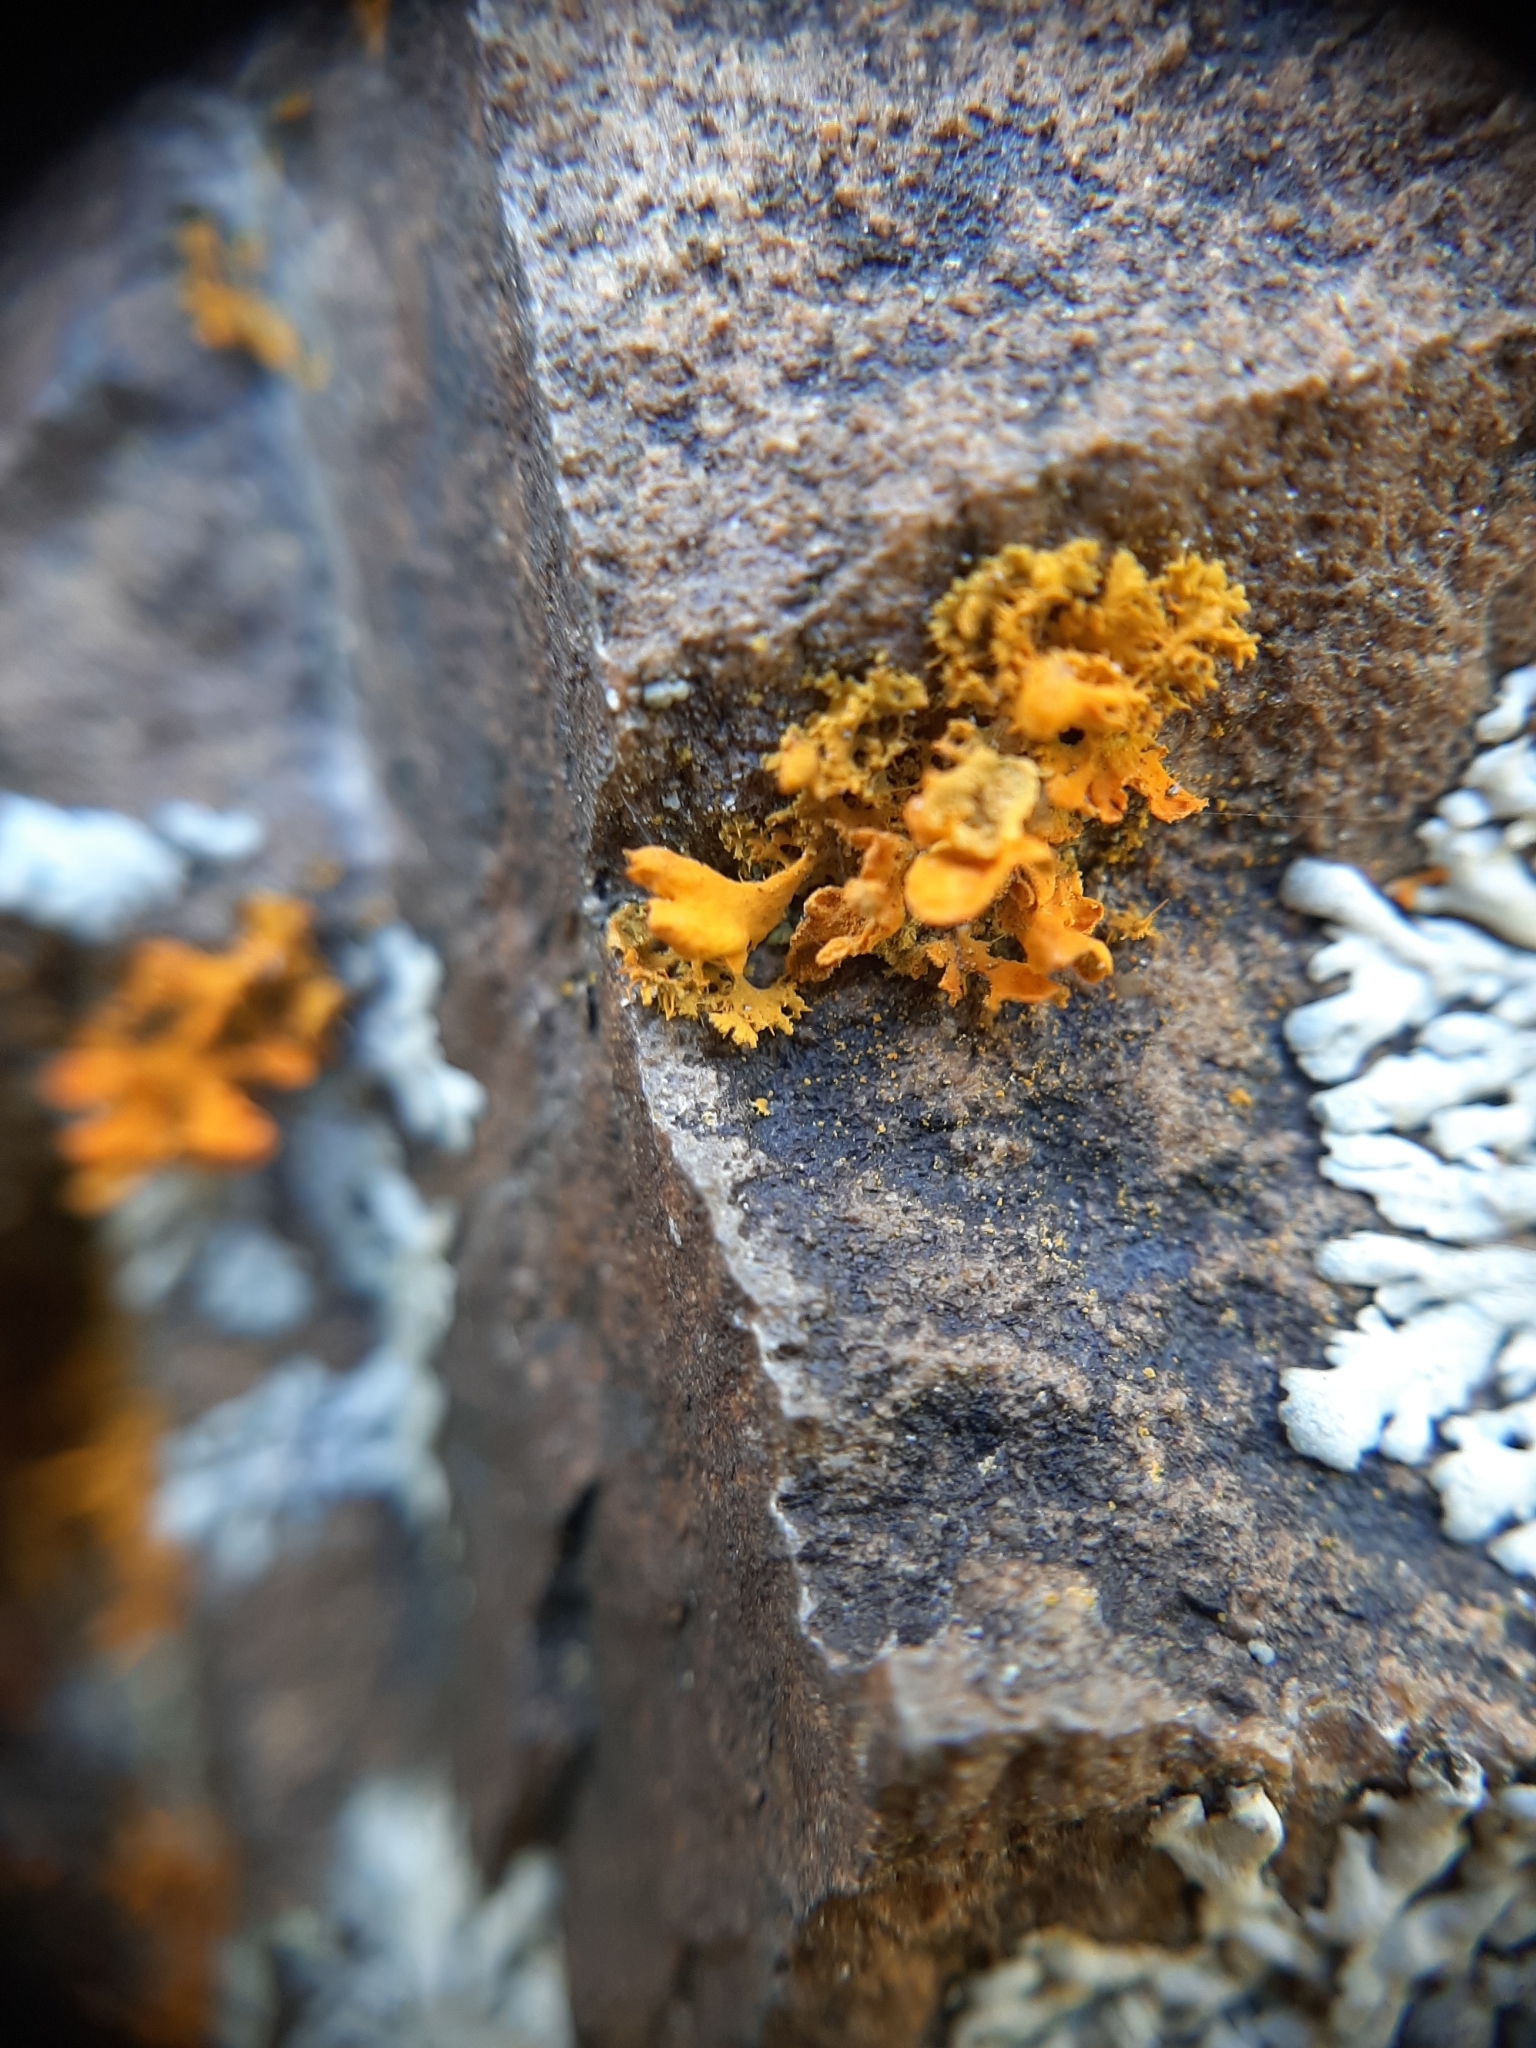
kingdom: Fungi
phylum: Ascomycota
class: Lecanoromycetes
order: Teloschistales
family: Teloschistaceae
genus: Teloschistes
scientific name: Teloschistes velifer
